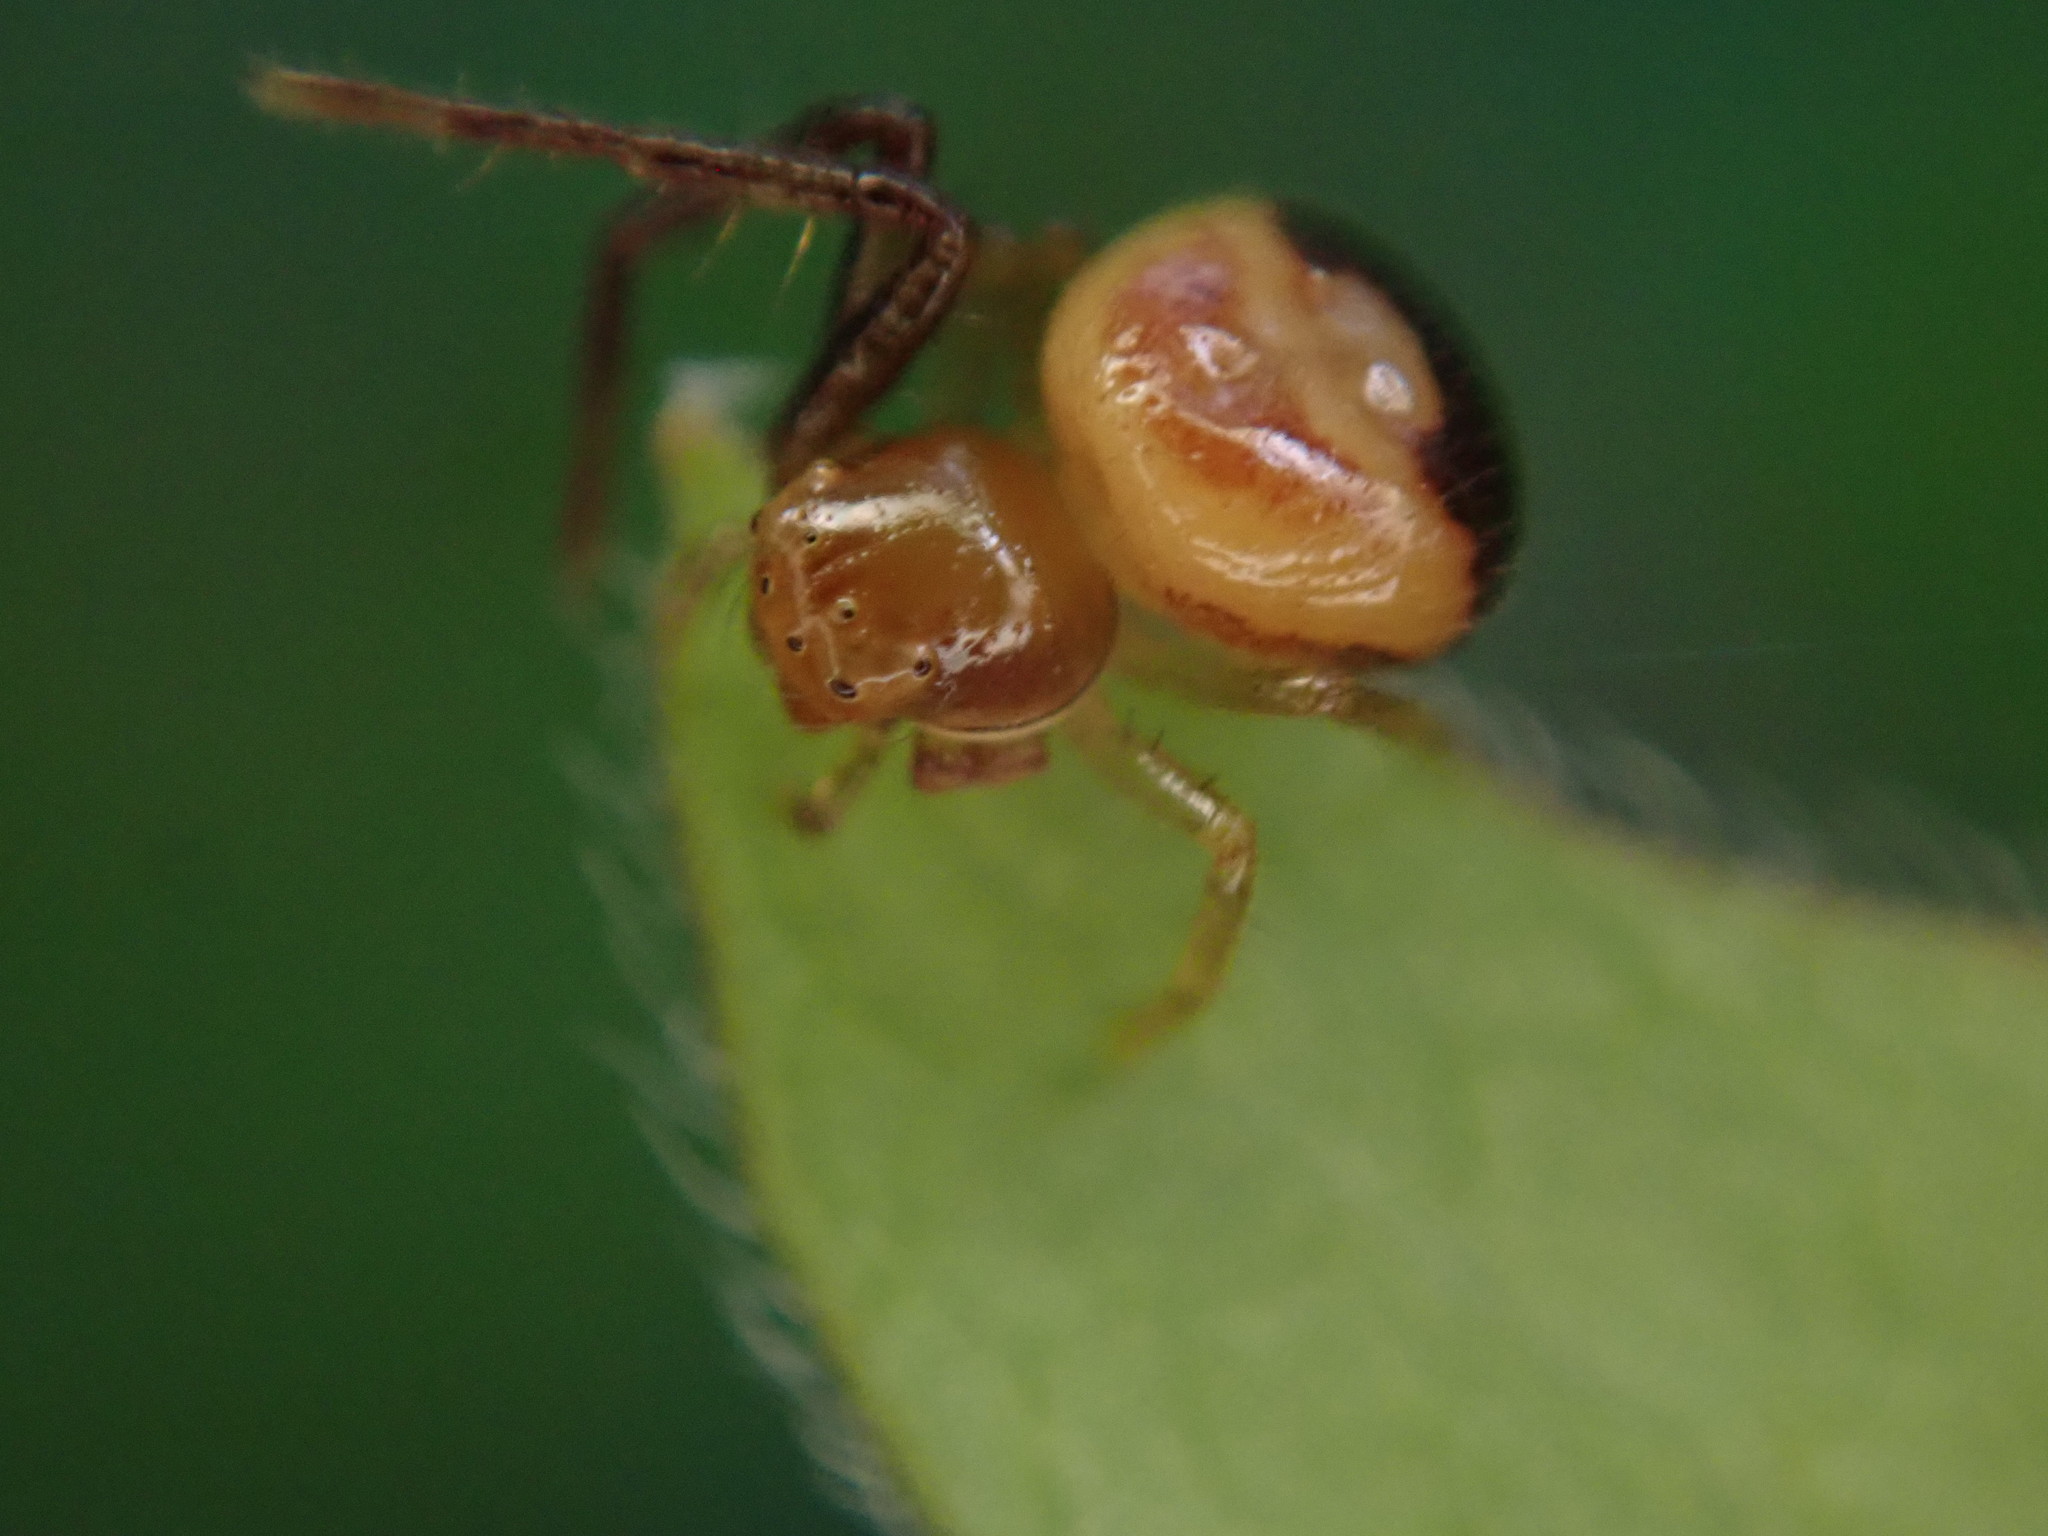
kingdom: Animalia
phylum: Arthropoda
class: Arachnida
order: Araneae
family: Thomisidae
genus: Synema
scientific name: Synema parvulum
